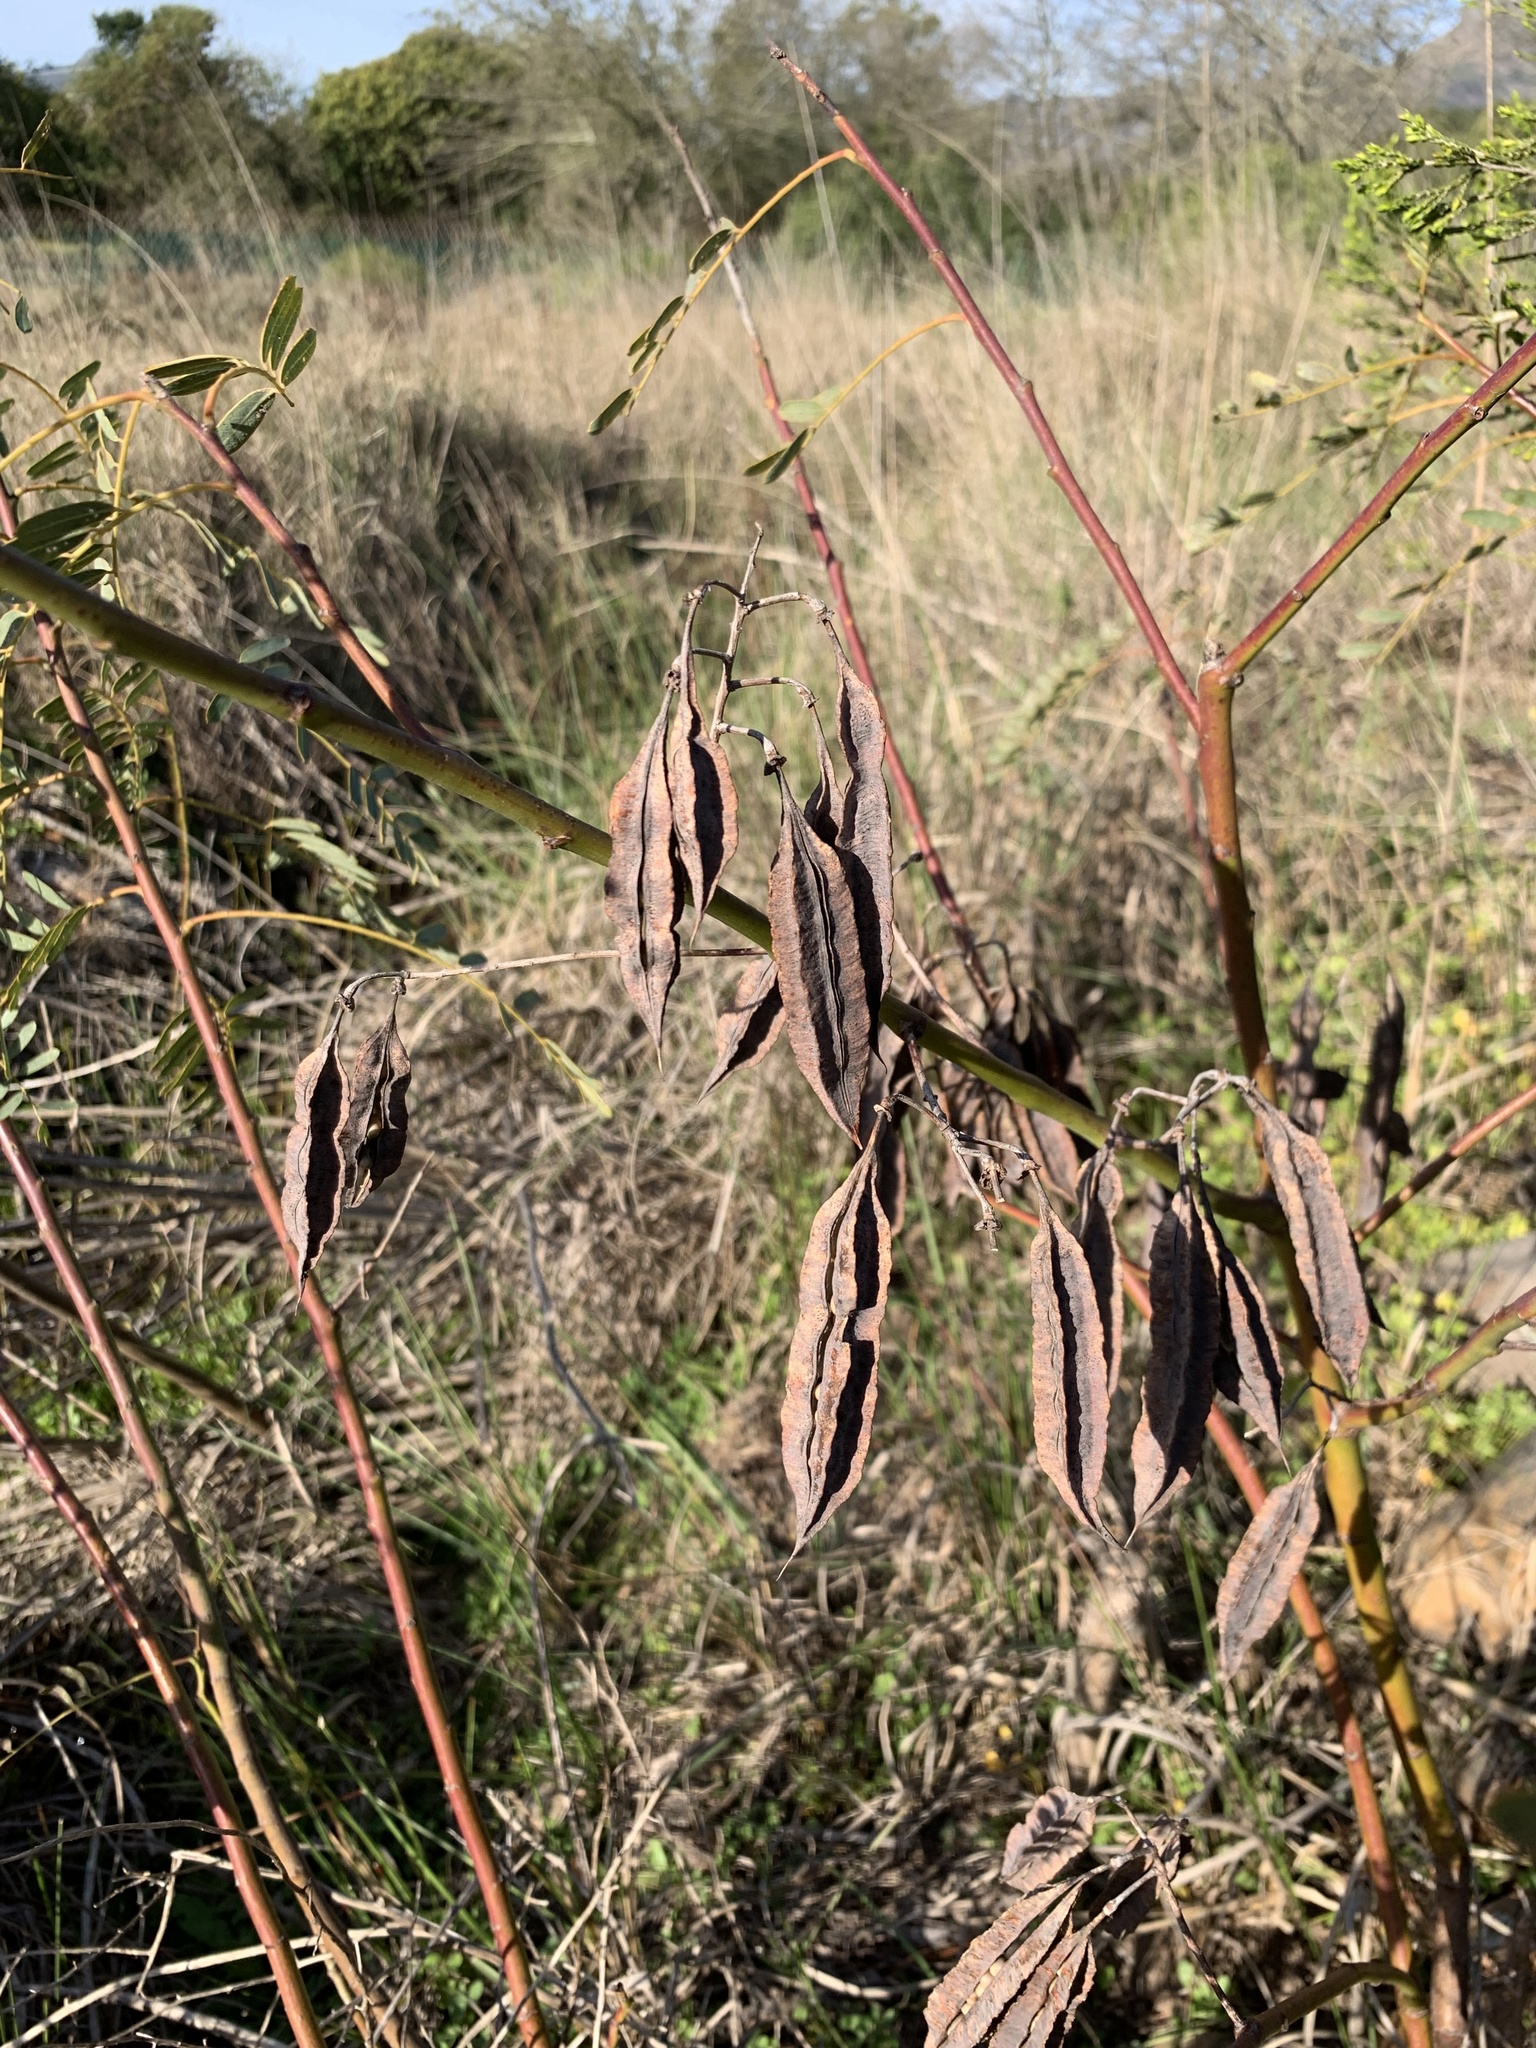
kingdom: Plantae
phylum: Tracheophyta
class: Magnoliopsida
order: Fabales
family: Fabaceae
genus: Sesbania
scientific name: Sesbania punicea
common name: Rattlebox
